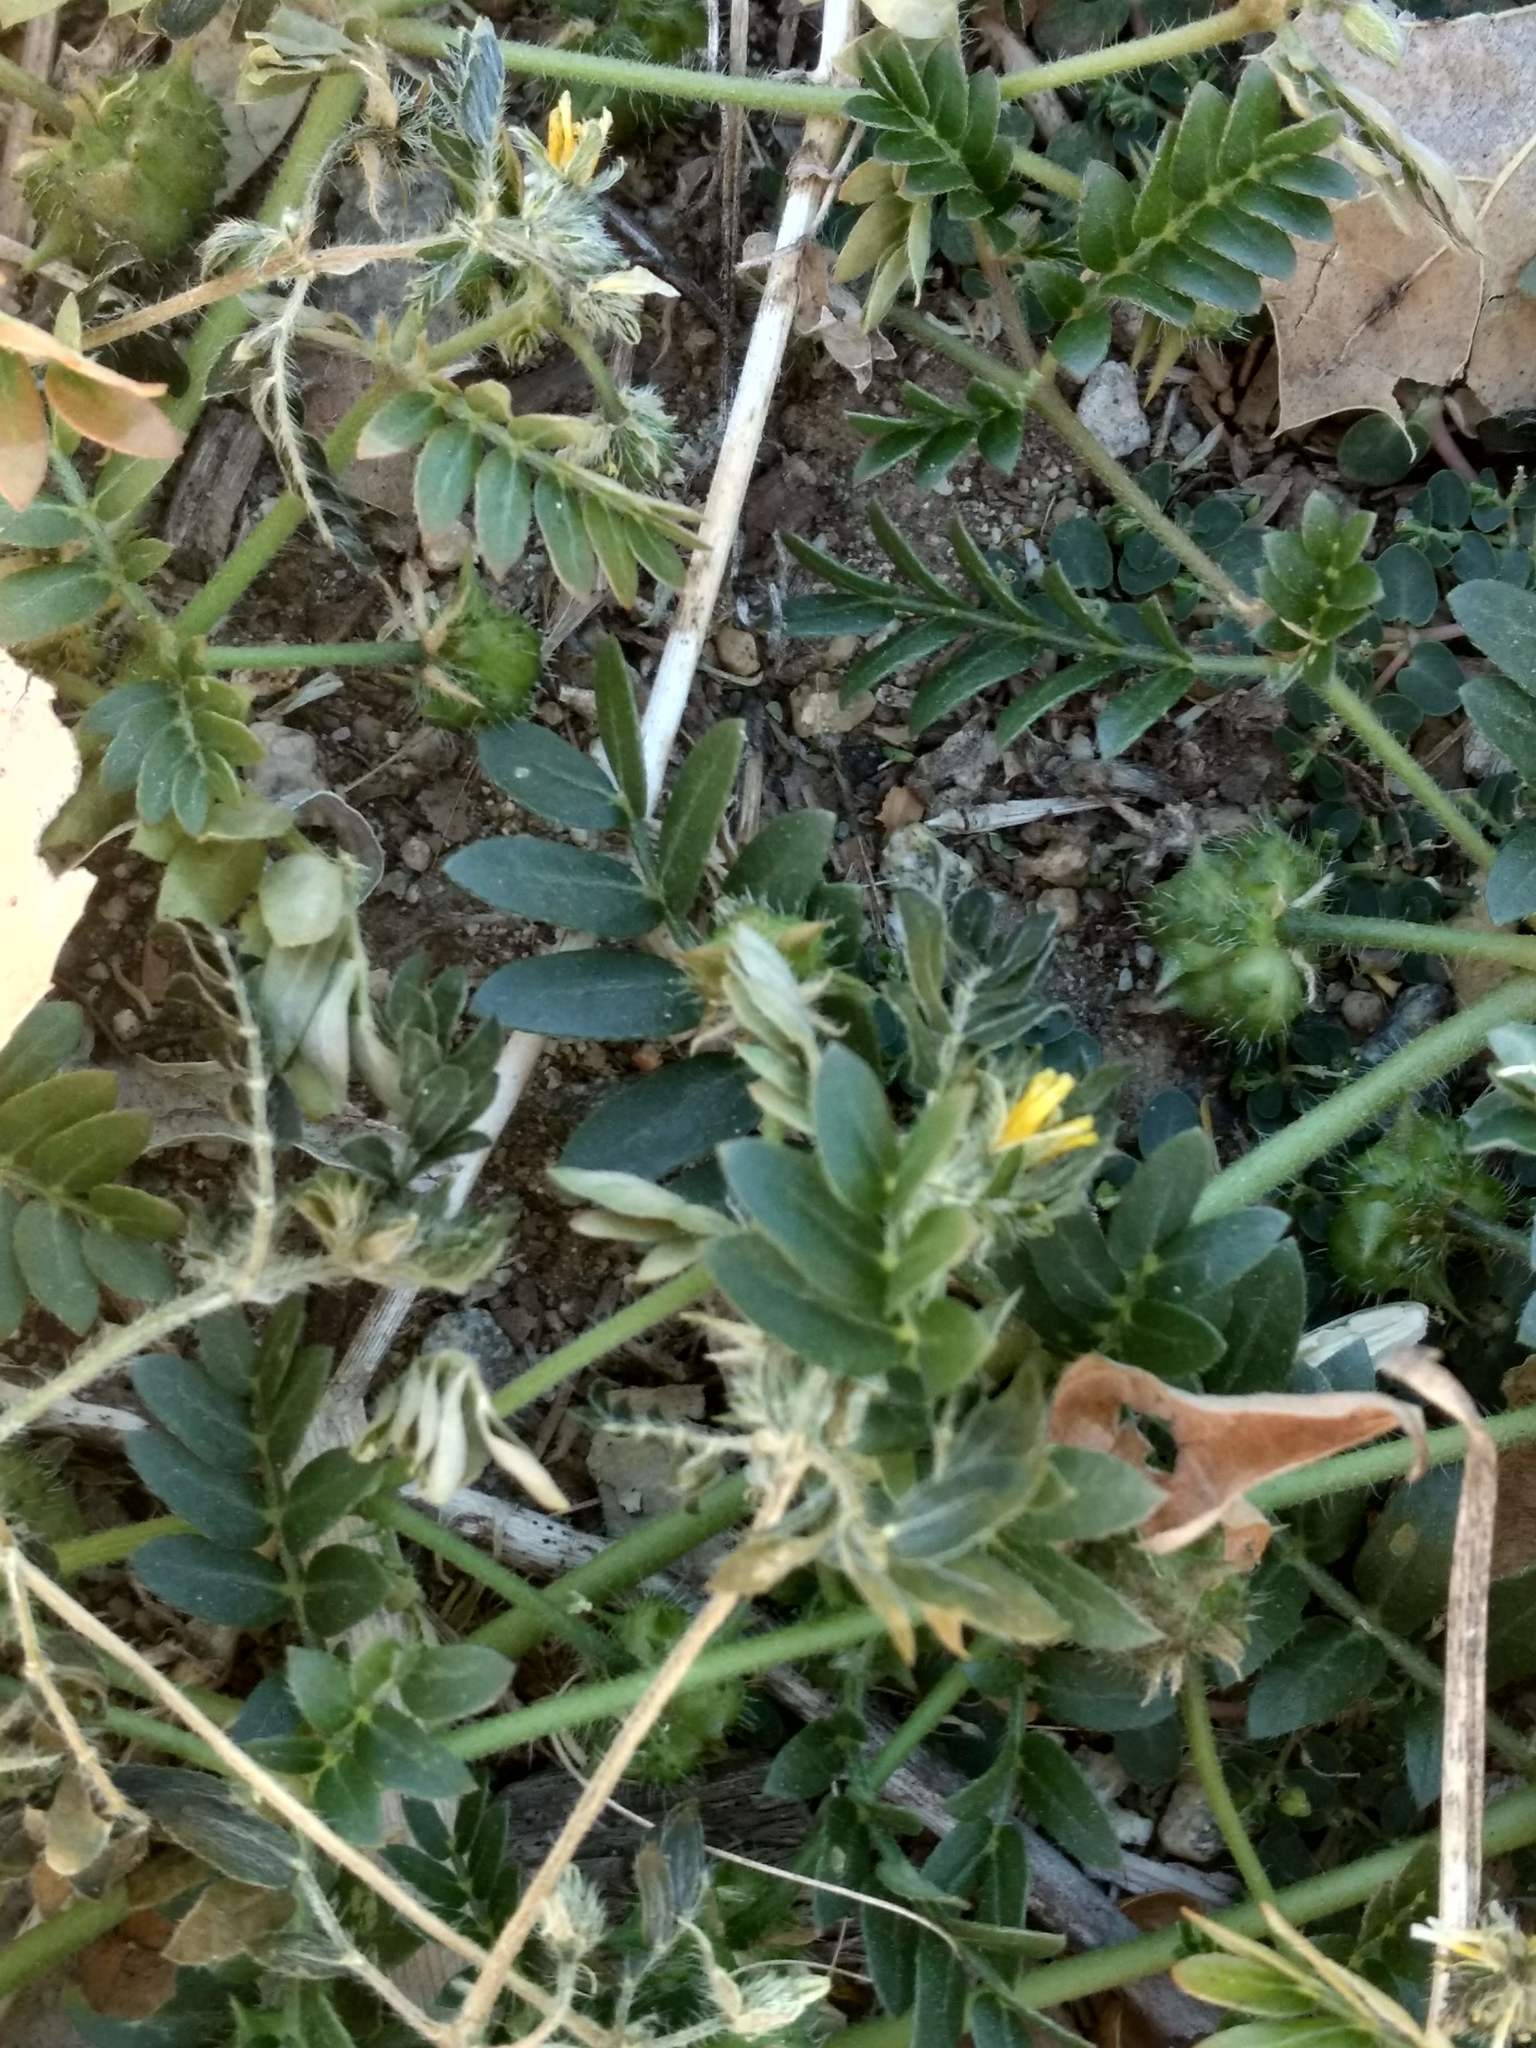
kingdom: Plantae
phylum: Tracheophyta
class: Magnoliopsida
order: Zygophyllales
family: Zygophyllaceae
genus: Tribulus
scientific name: Tribulus terrestris
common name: Puncturevine
